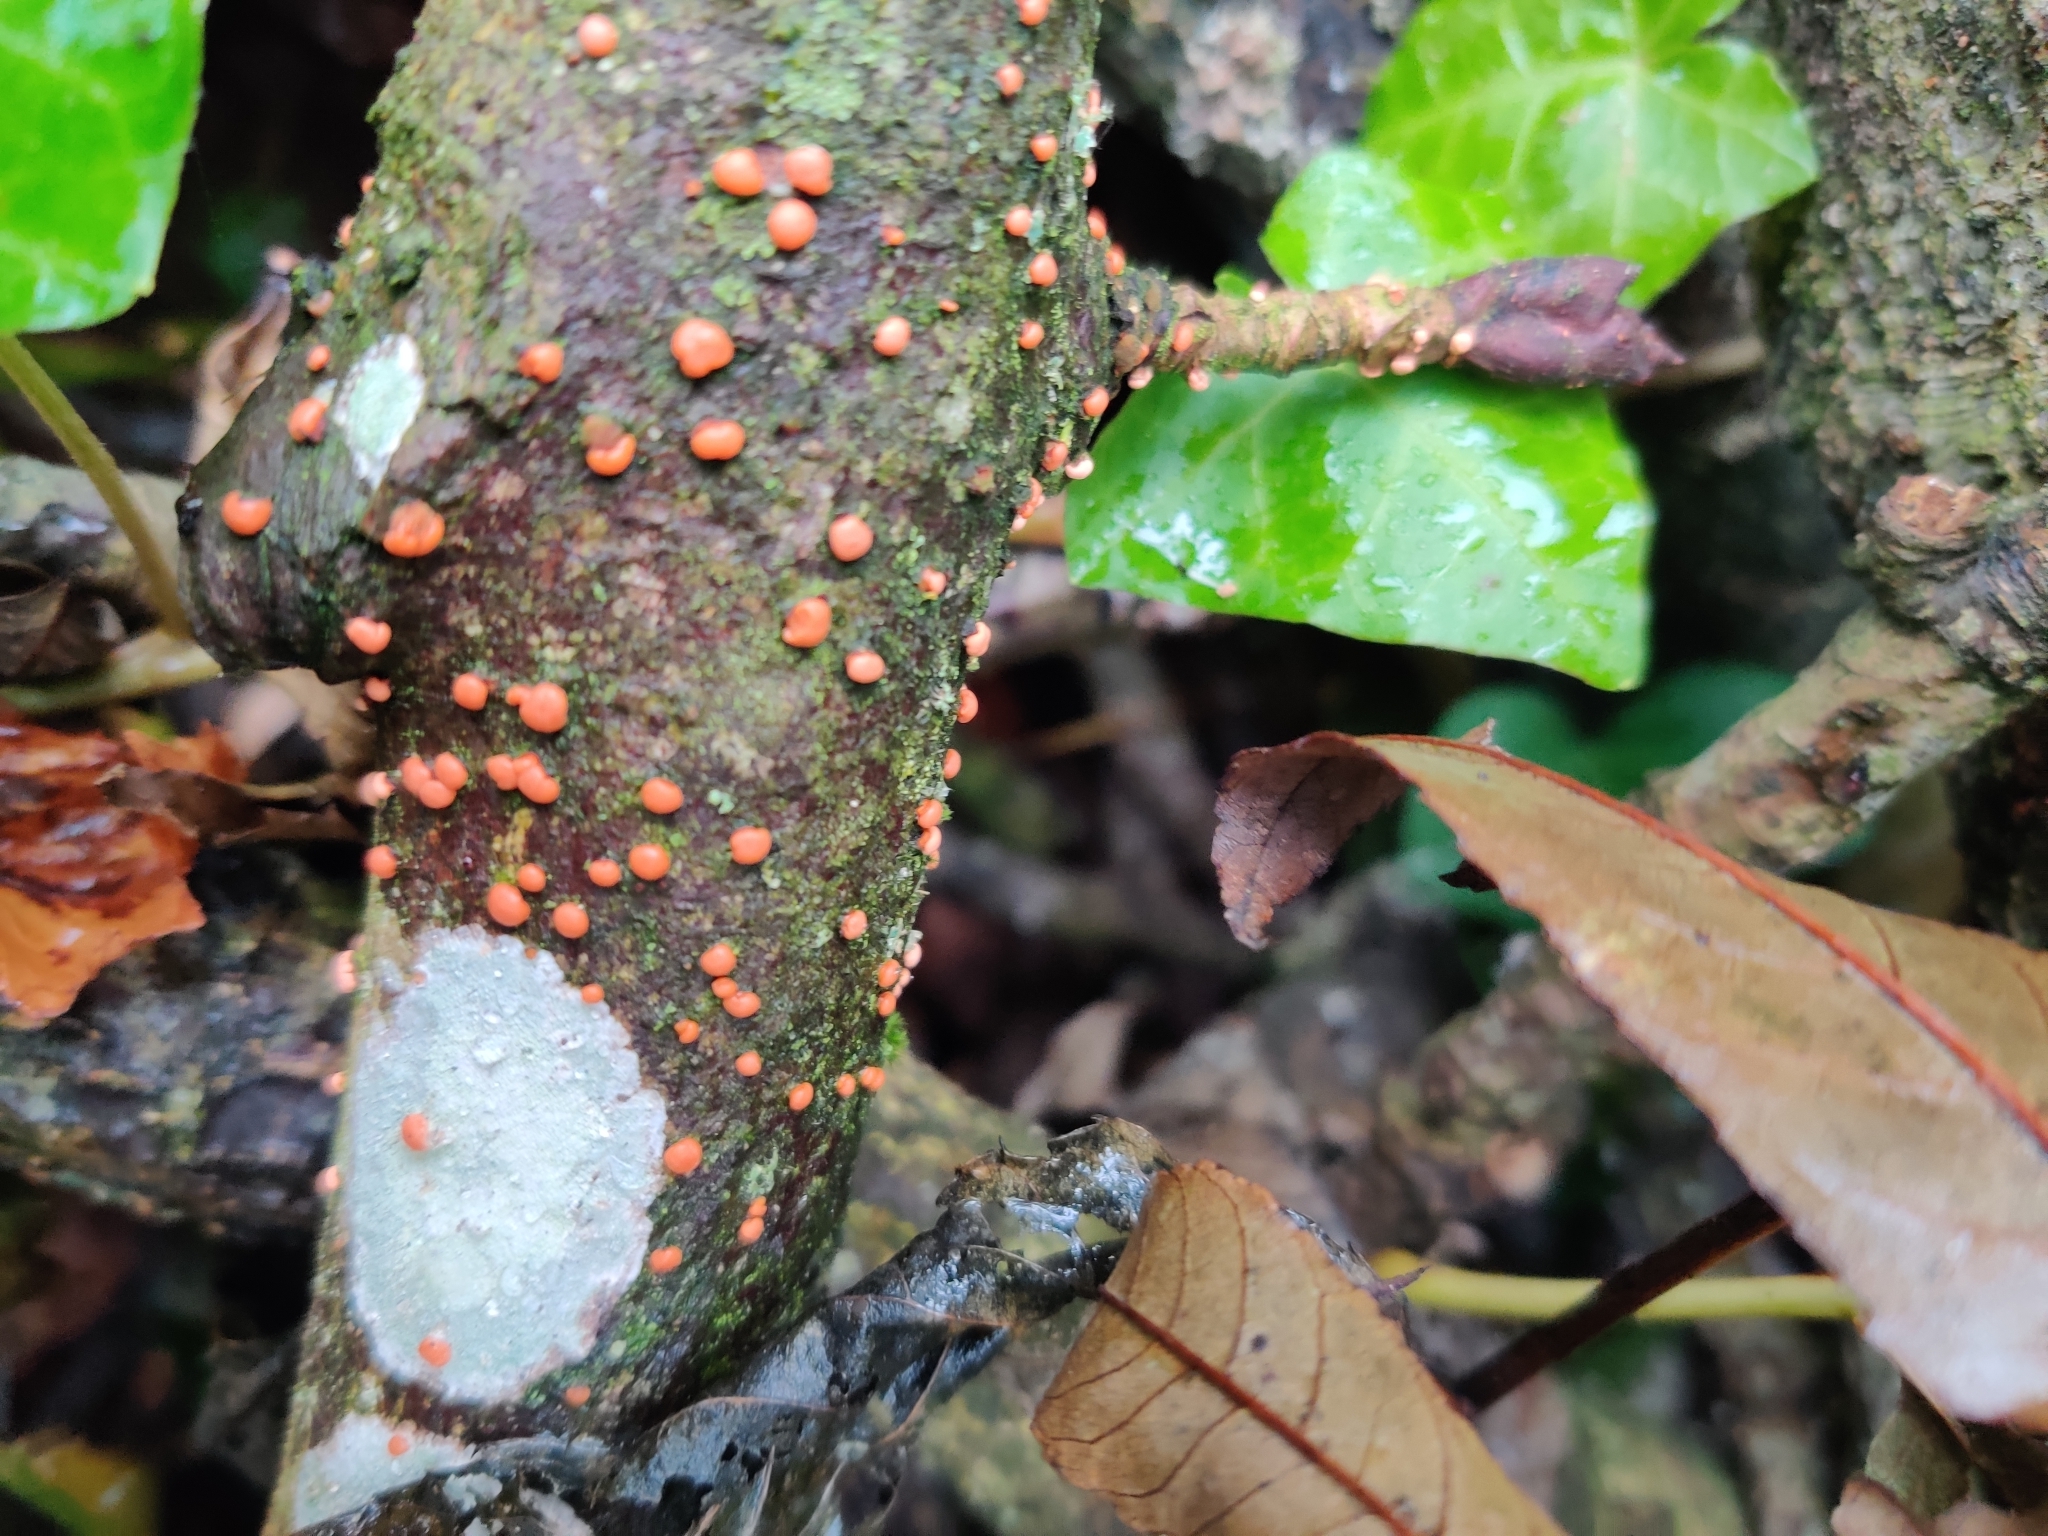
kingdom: Fungi
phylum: Ascomycota
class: Sordariomycetes
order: Hypocreales
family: Nectriaceae
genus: Nectria
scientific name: Nectria cinnabarina
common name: Coral spot
